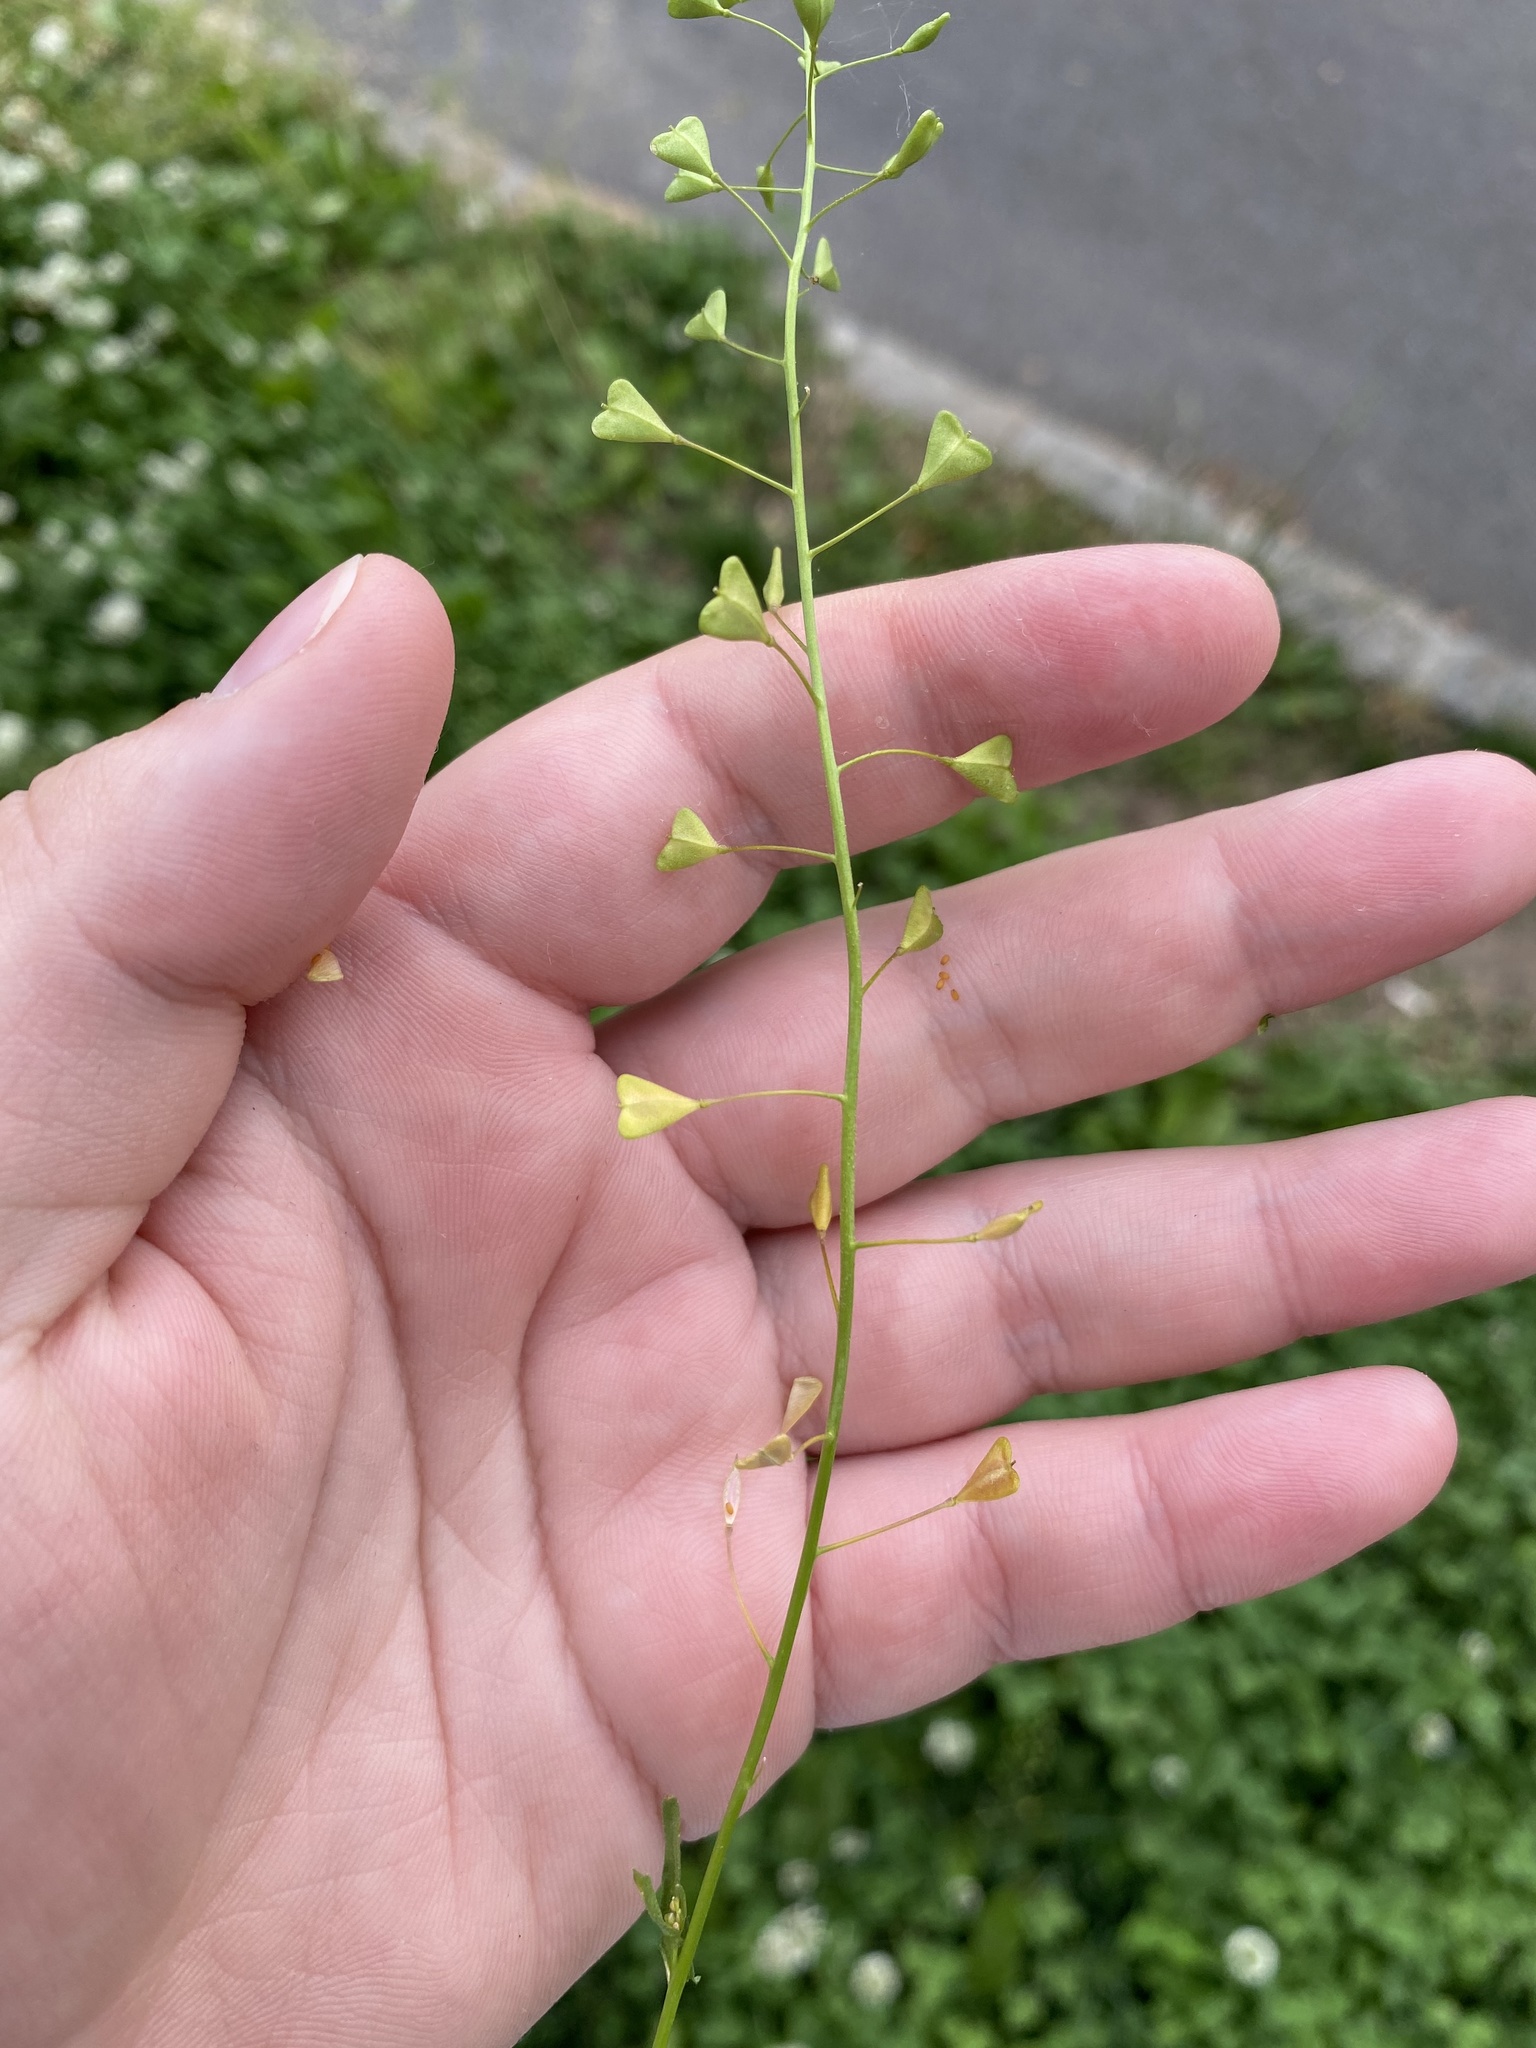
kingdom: Plantae
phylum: Tracheophyta
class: Magnoliopsida
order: Brassicales
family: Brassicaceae
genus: Capsella
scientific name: Capsella bursa-pastoris
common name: Shepherd's purse
